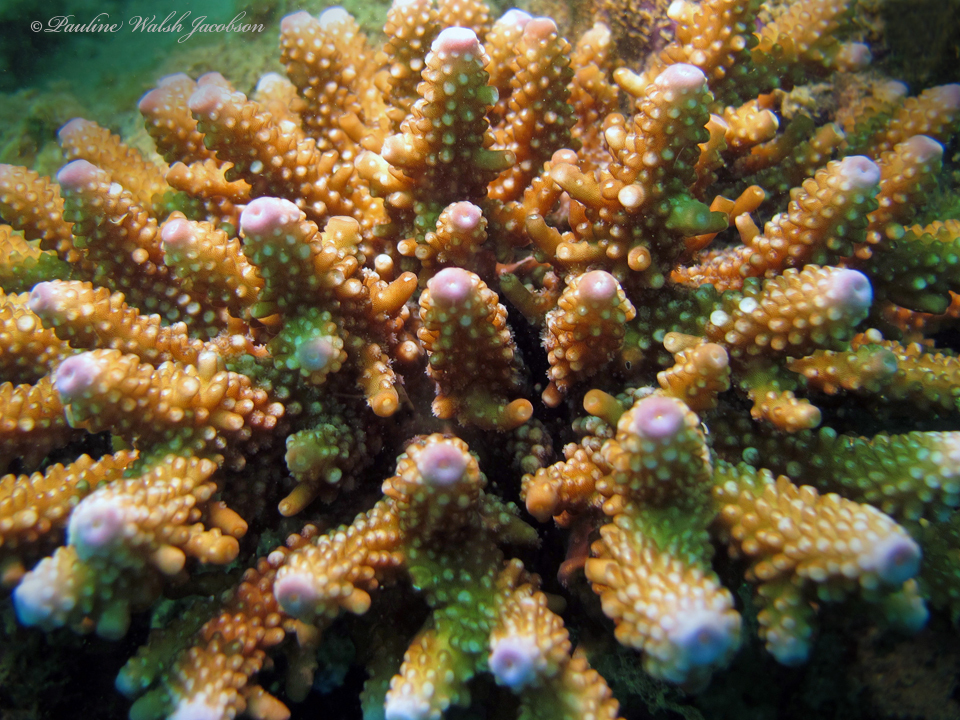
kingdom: Animalia
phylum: Cnidaria
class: Anthozoa
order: Scleractinia
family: Acroporidae
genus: Acropora
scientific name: Acropora humilis
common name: Finger coral
